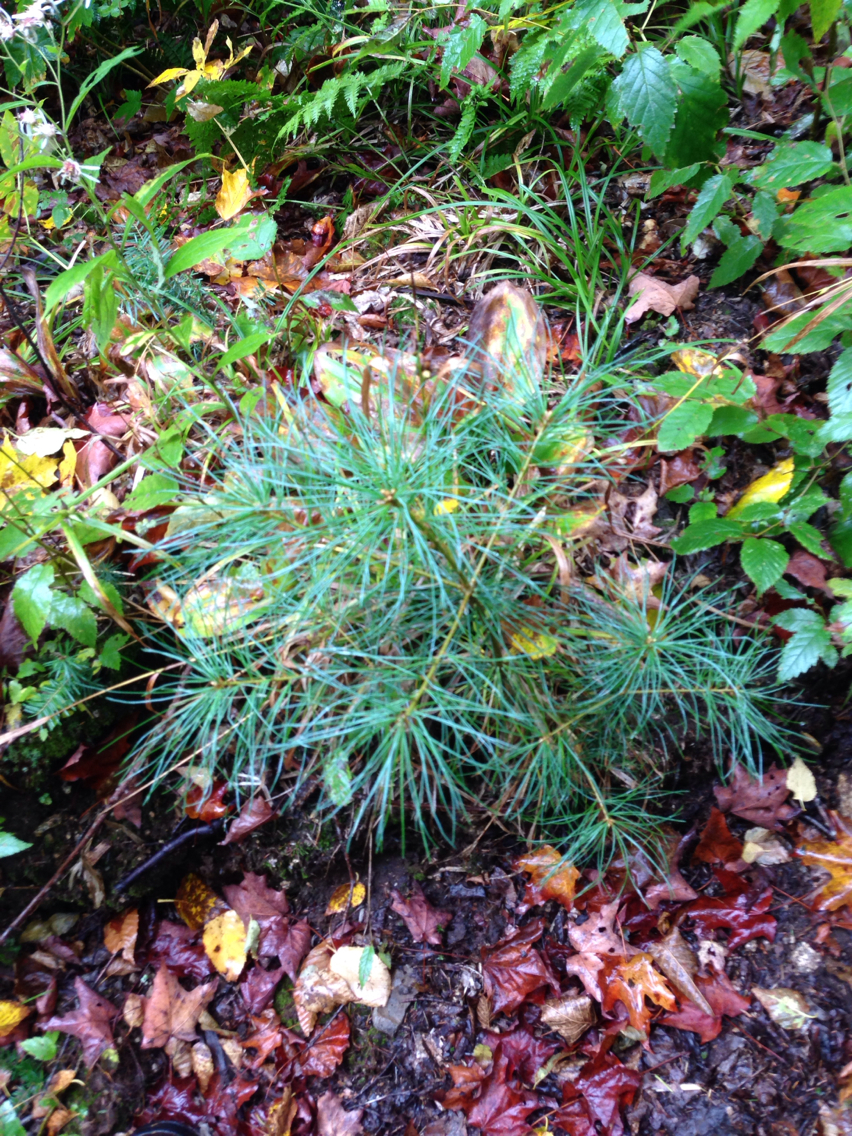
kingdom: Plantae
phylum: Tracheophyta
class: Pinopsida
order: Pinales
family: Pinaceae
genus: Pinus
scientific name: Pinus strobus
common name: Weymouth pine
